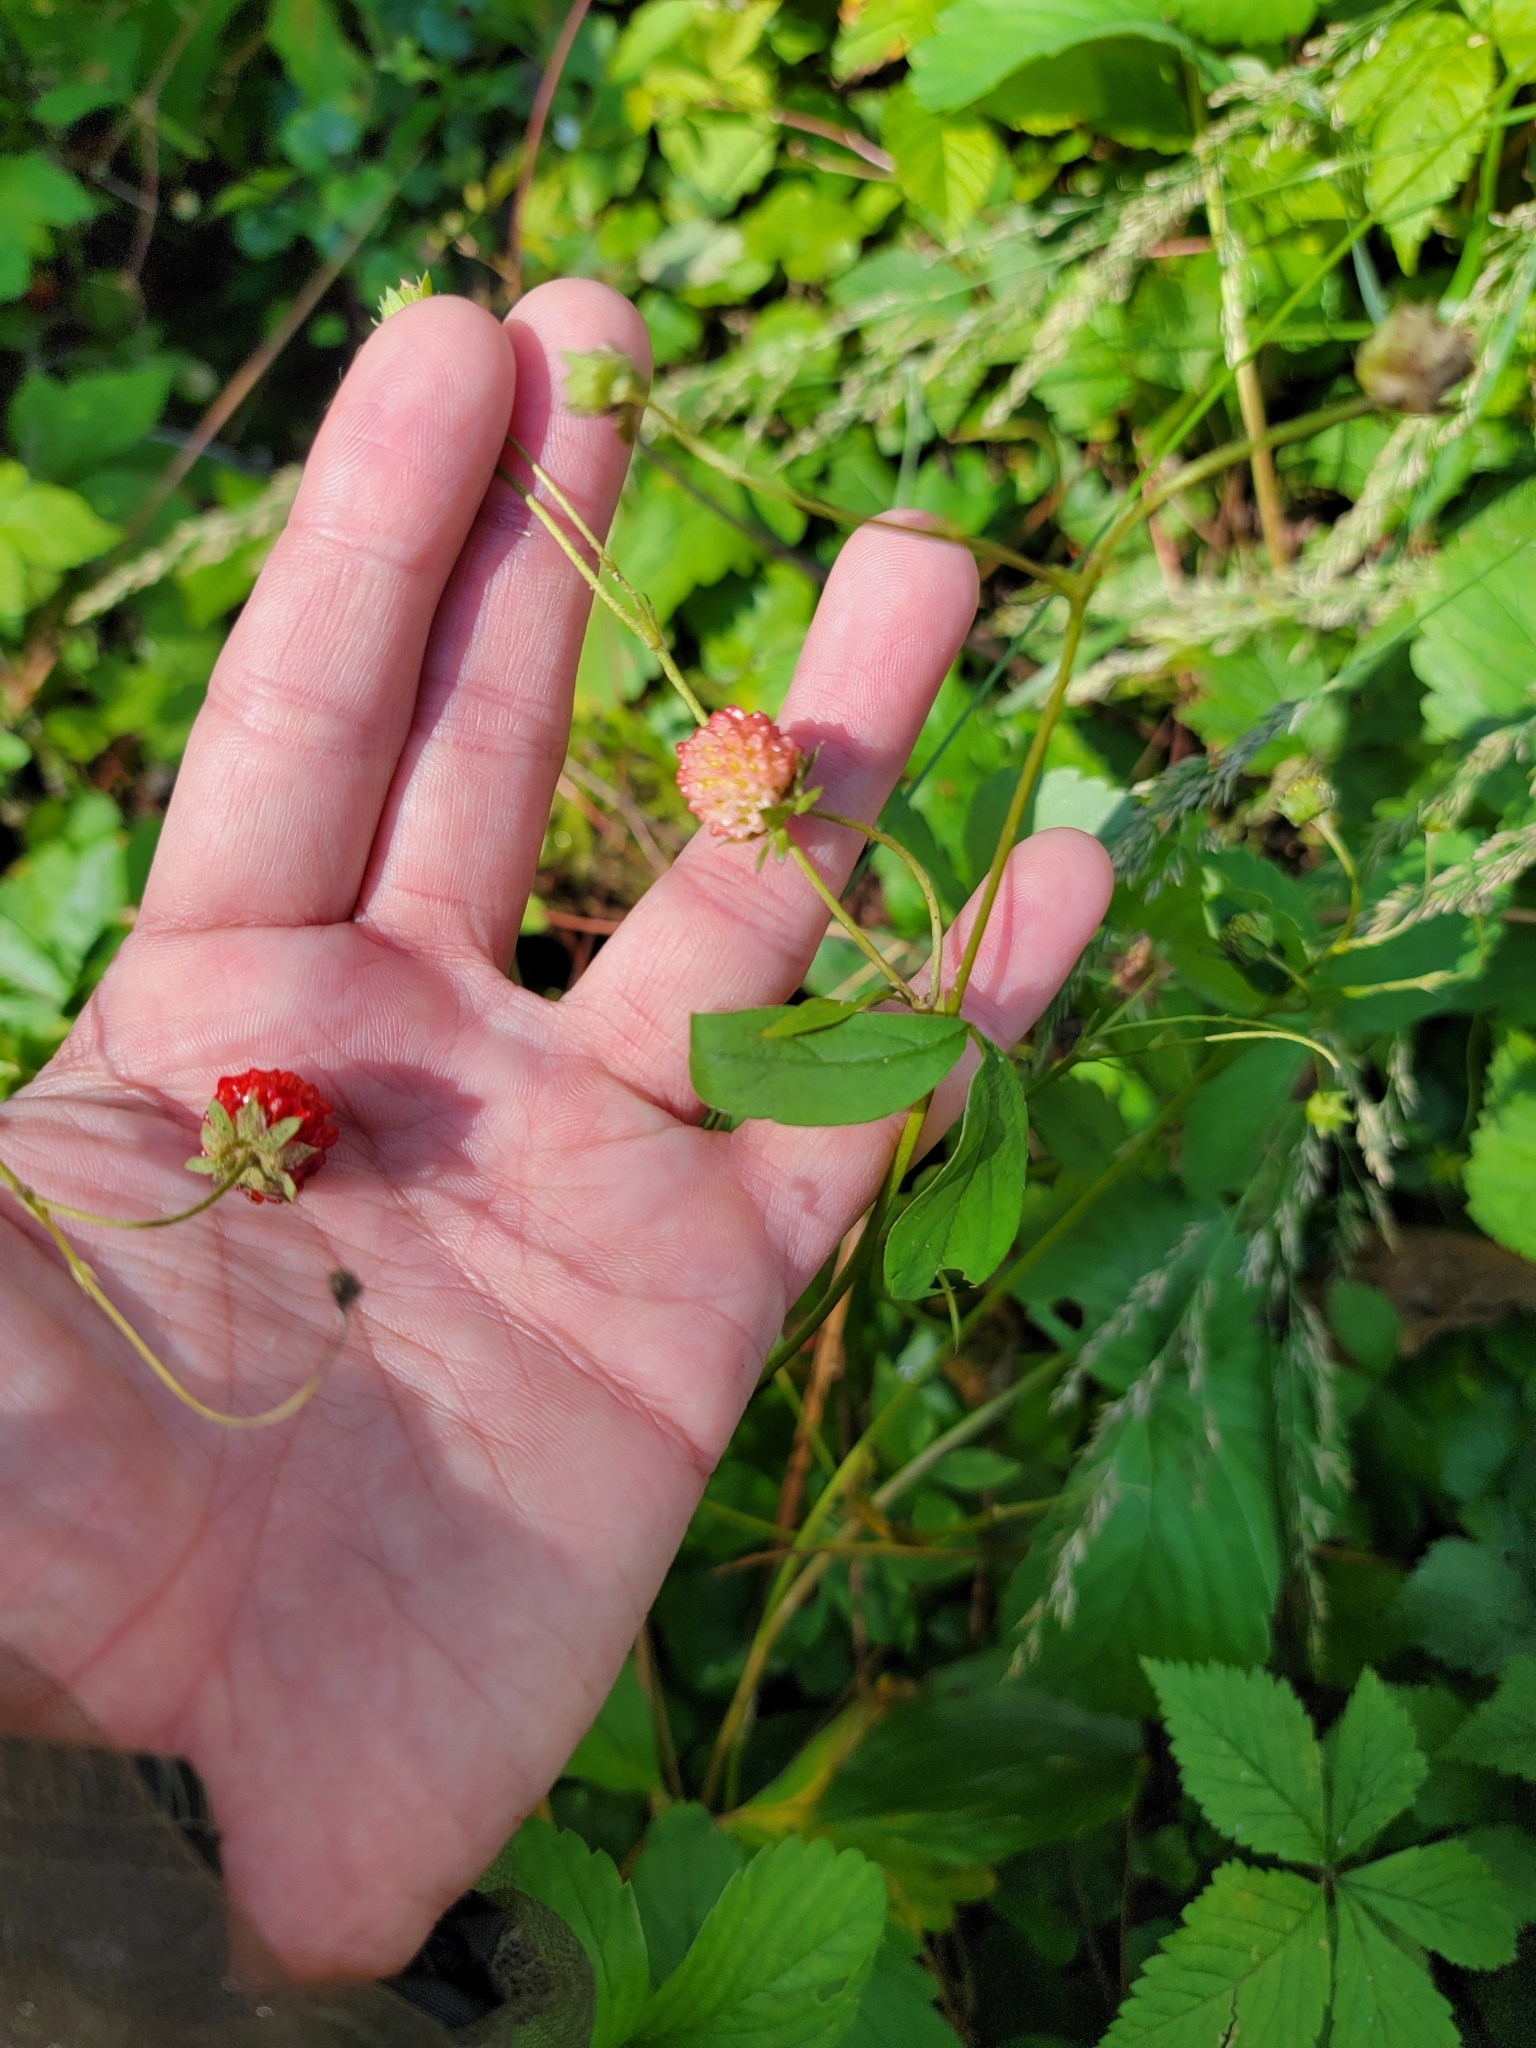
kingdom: Plantae
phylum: Tracheophyta
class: Magnoliopsida
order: Rosales
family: Rosaceae
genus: Fragaria
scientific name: Fragaria virginiana
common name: Thickleaved wild strawberry
